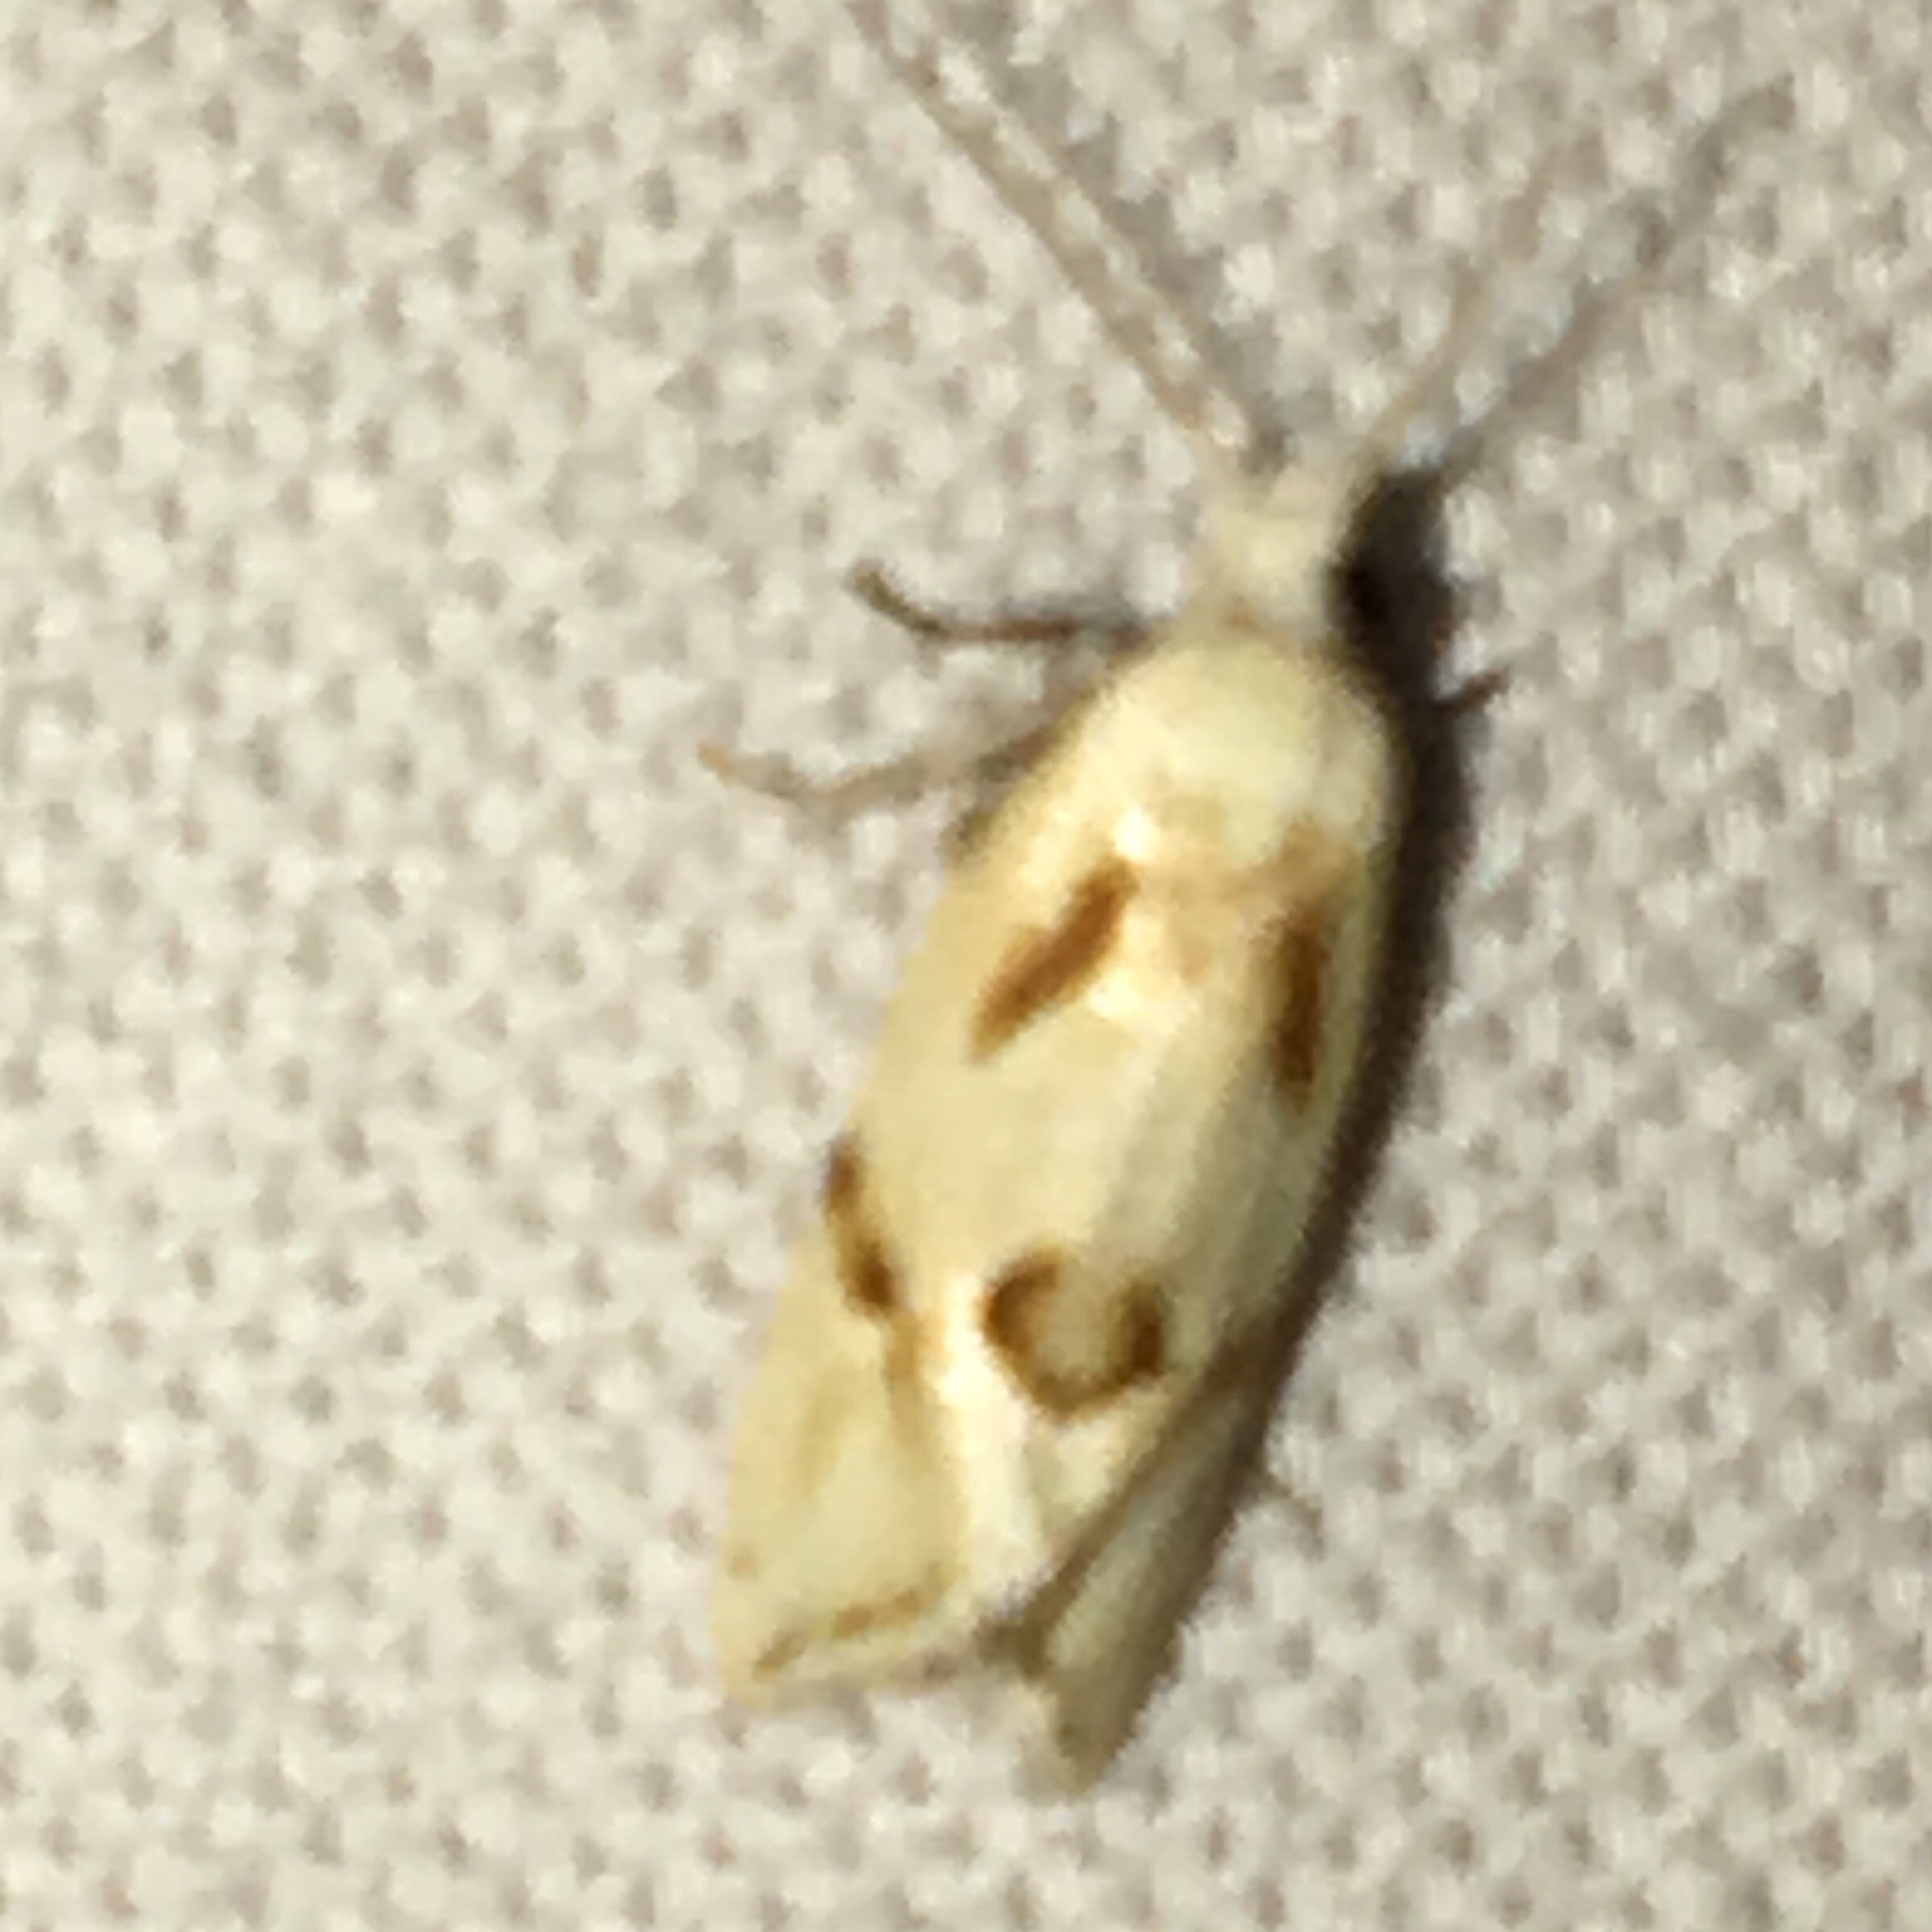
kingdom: Animalia
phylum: Arthropoda
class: Insecta
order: Lepidoptera
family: Tortricidae
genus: Aethes
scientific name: Aethes seriatana
